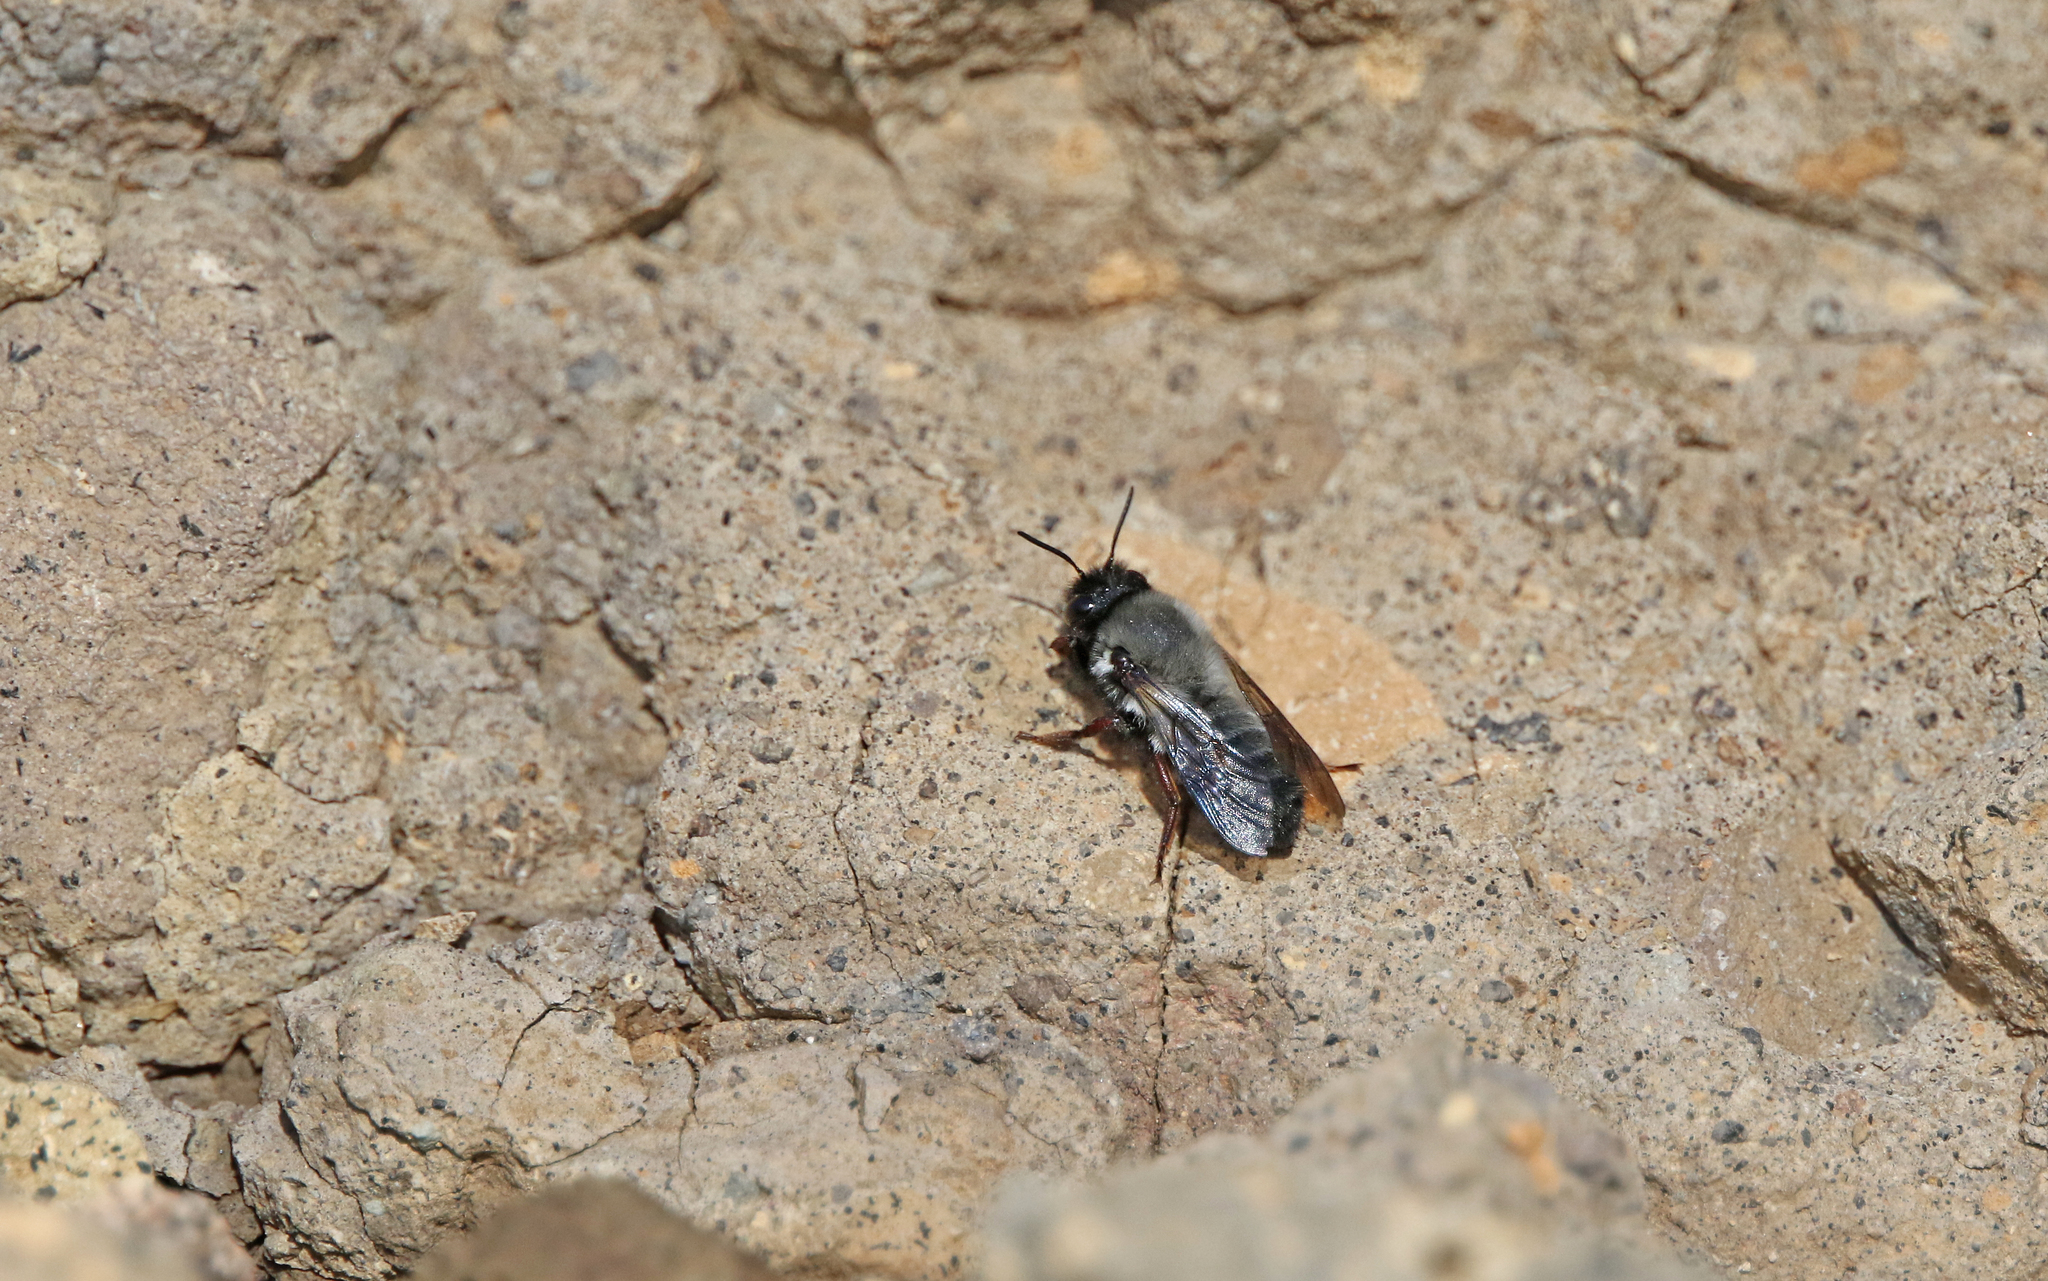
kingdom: Animalia
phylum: Arthropoda
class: Insecta
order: Hymenoptera
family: Megachilidae
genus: Megachile
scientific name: Megachile canescens
